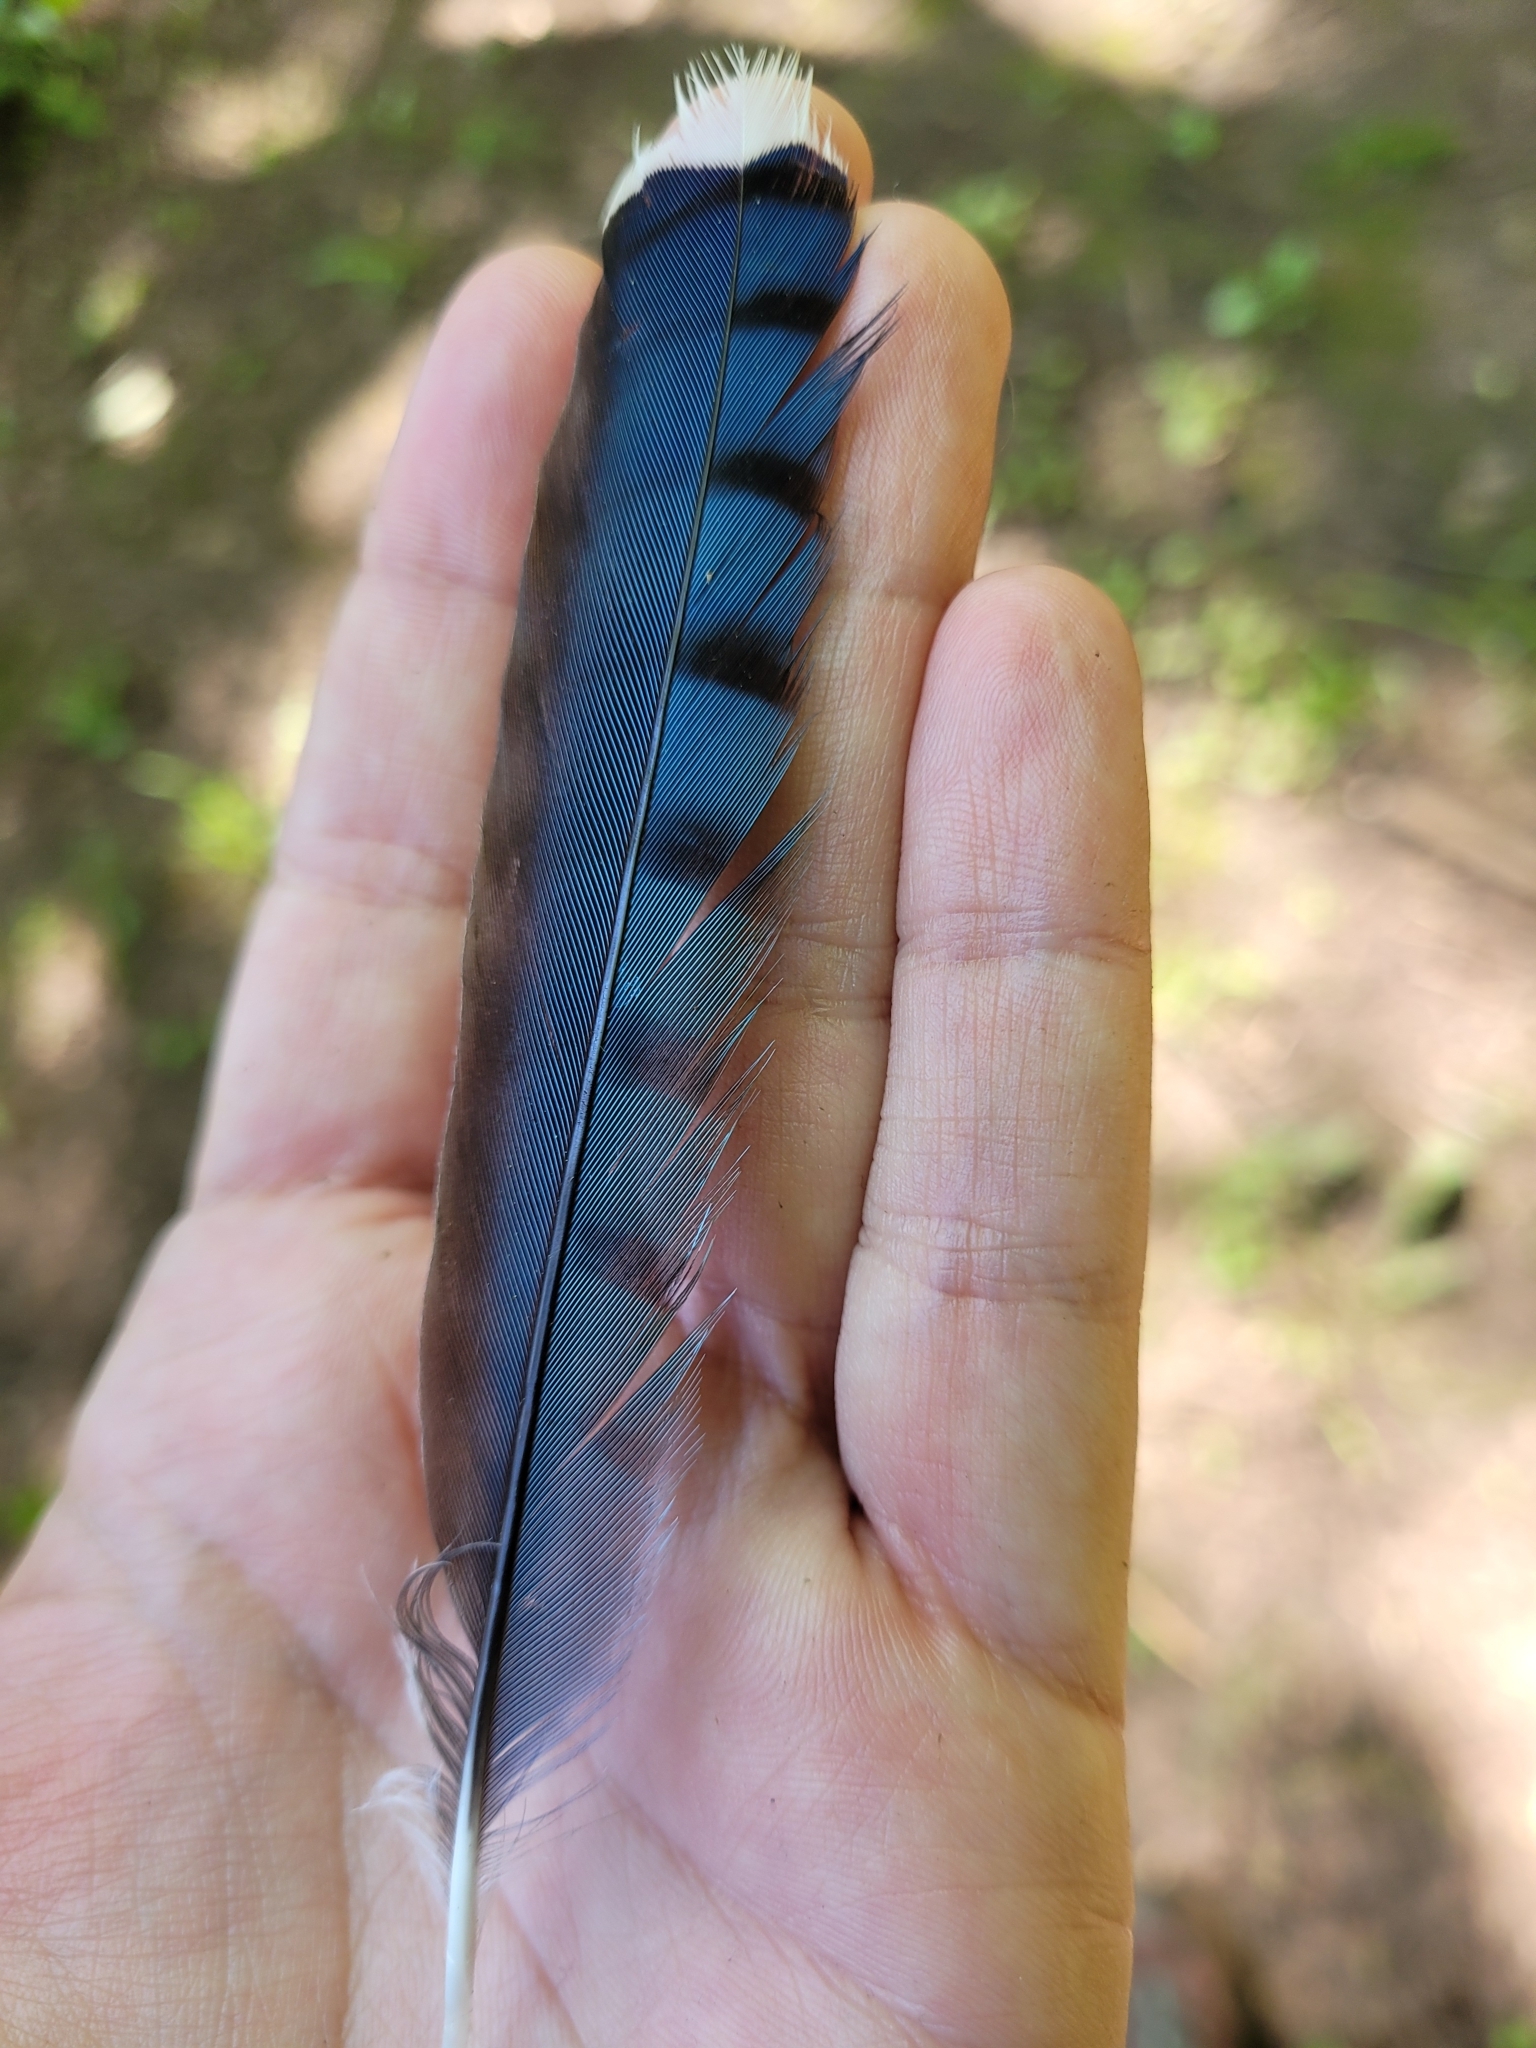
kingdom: Animalia
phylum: Chordata
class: Aves
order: Passeriformes
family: Corvidae
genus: Cyanocitta
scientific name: Cyanocitta cristata
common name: Blue jay
